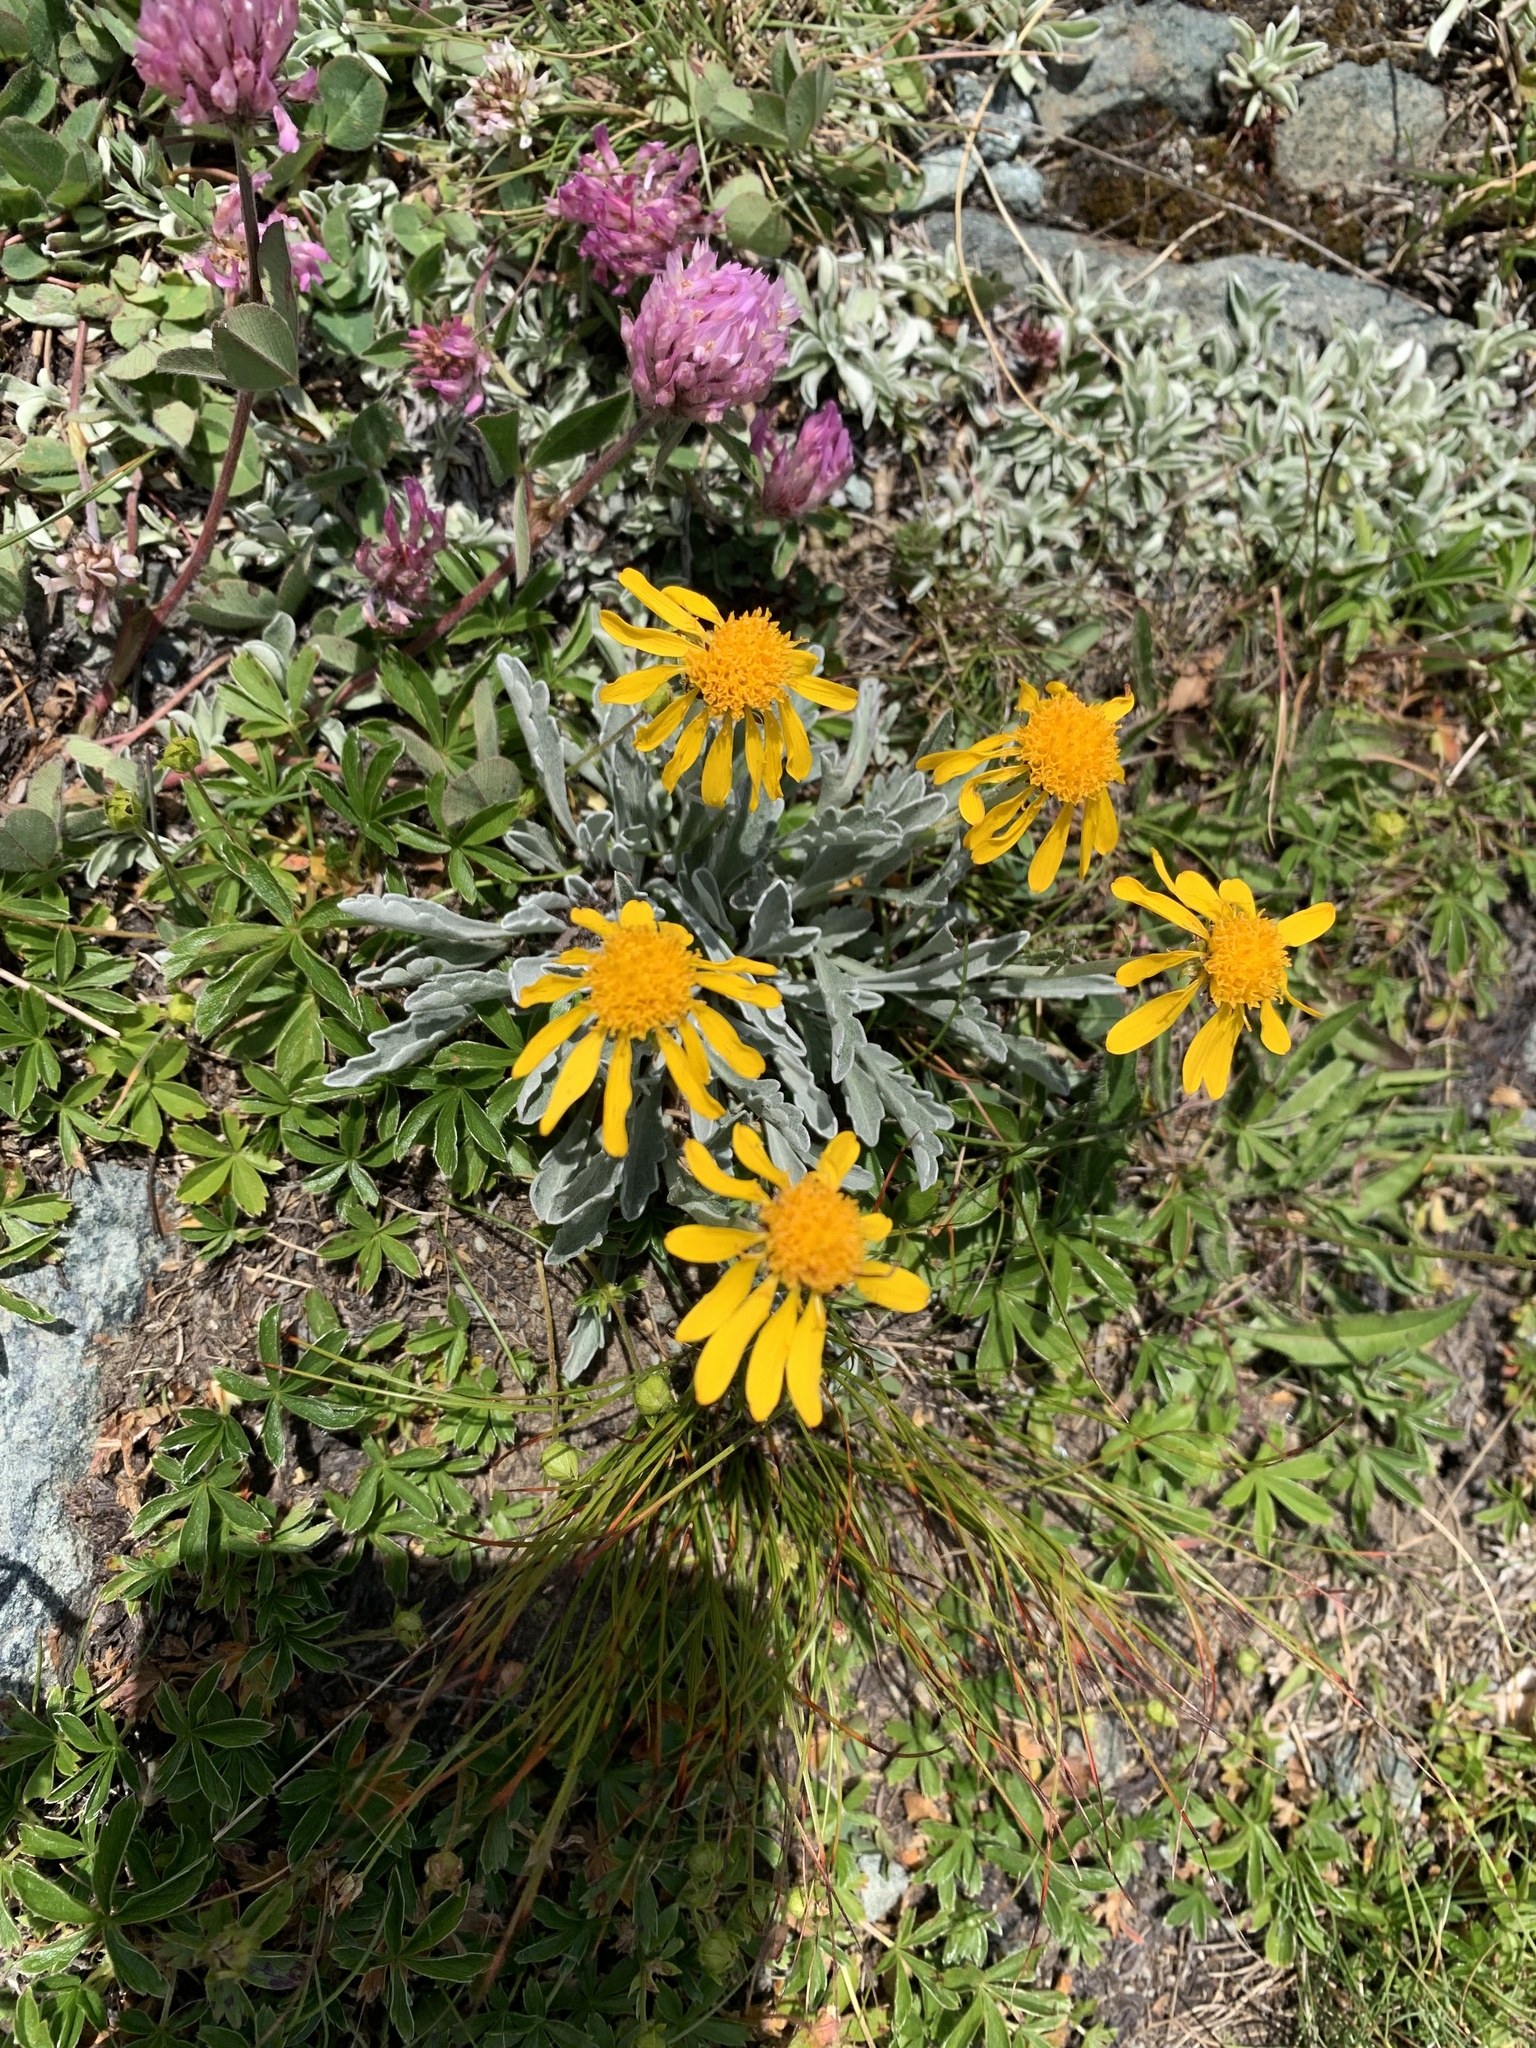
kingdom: Plantae
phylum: Tracheophyta
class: Magnoliopsida
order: Asterales
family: Asteraceae
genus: Jacobaea
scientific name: Jacobaea incana
